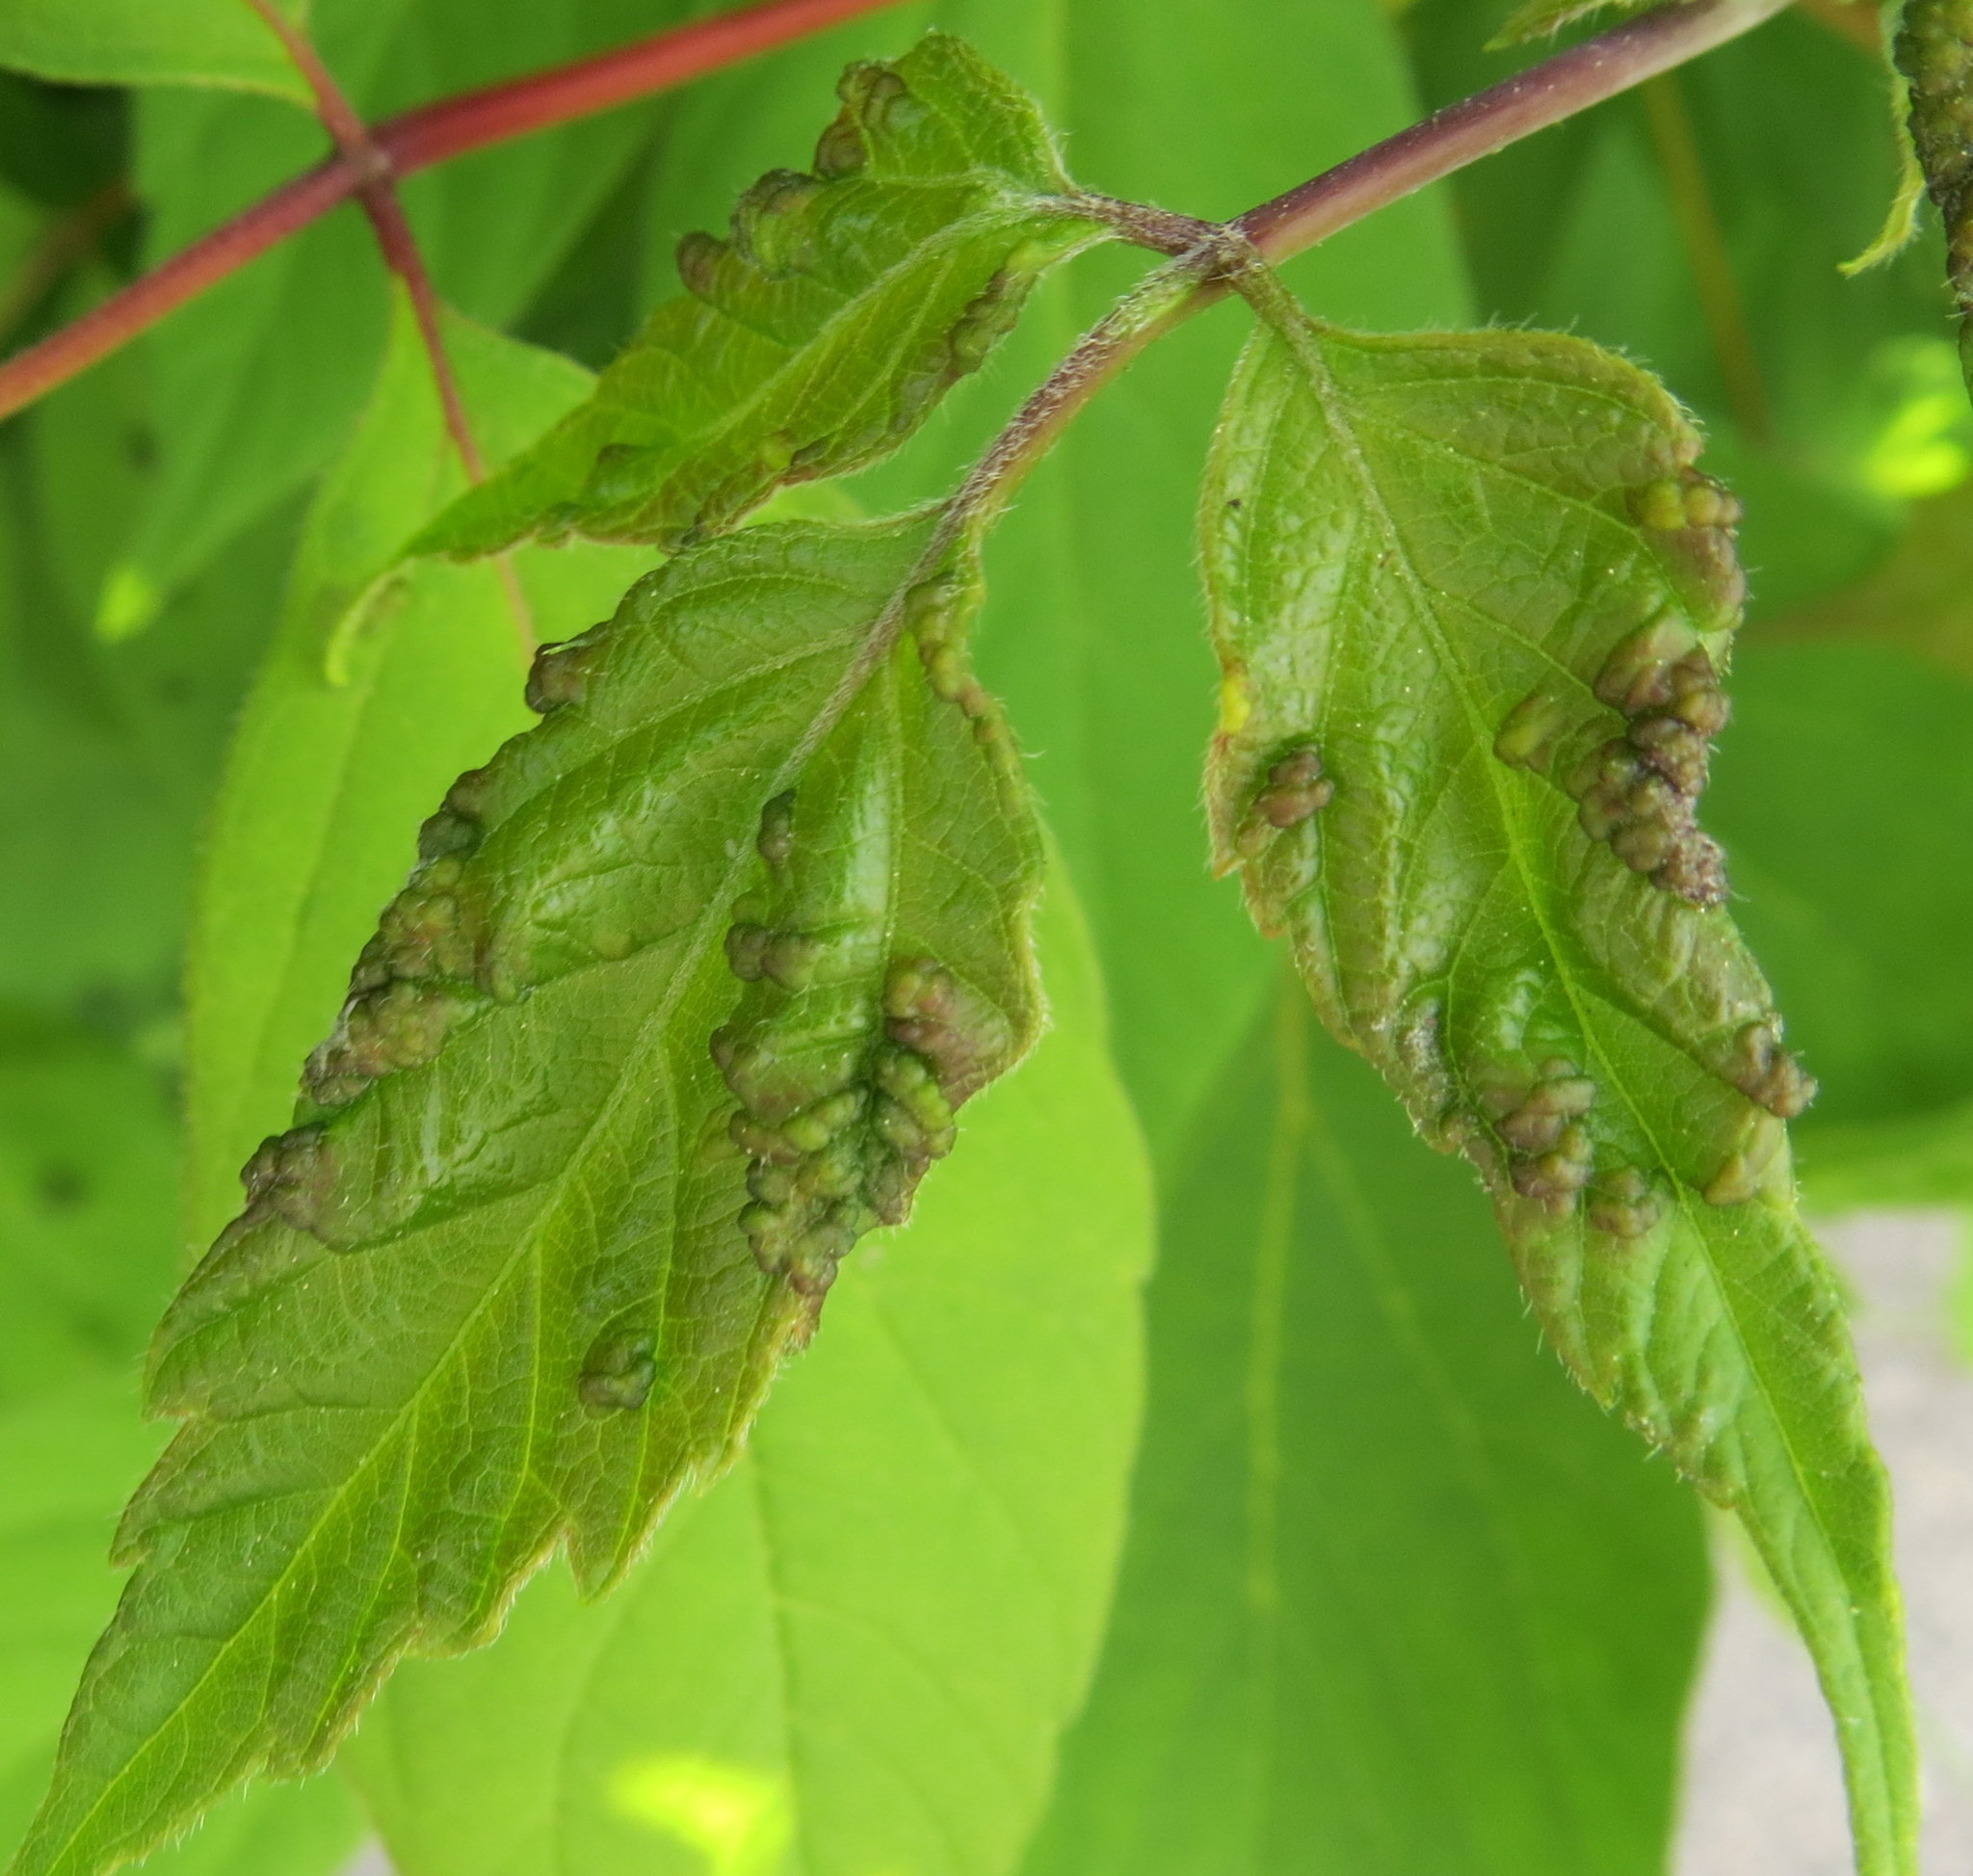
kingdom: Animalia
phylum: Arthropoda
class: Arachnida
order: Trombidiformes
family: Eriophyidae
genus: Aceria
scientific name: Aceria
